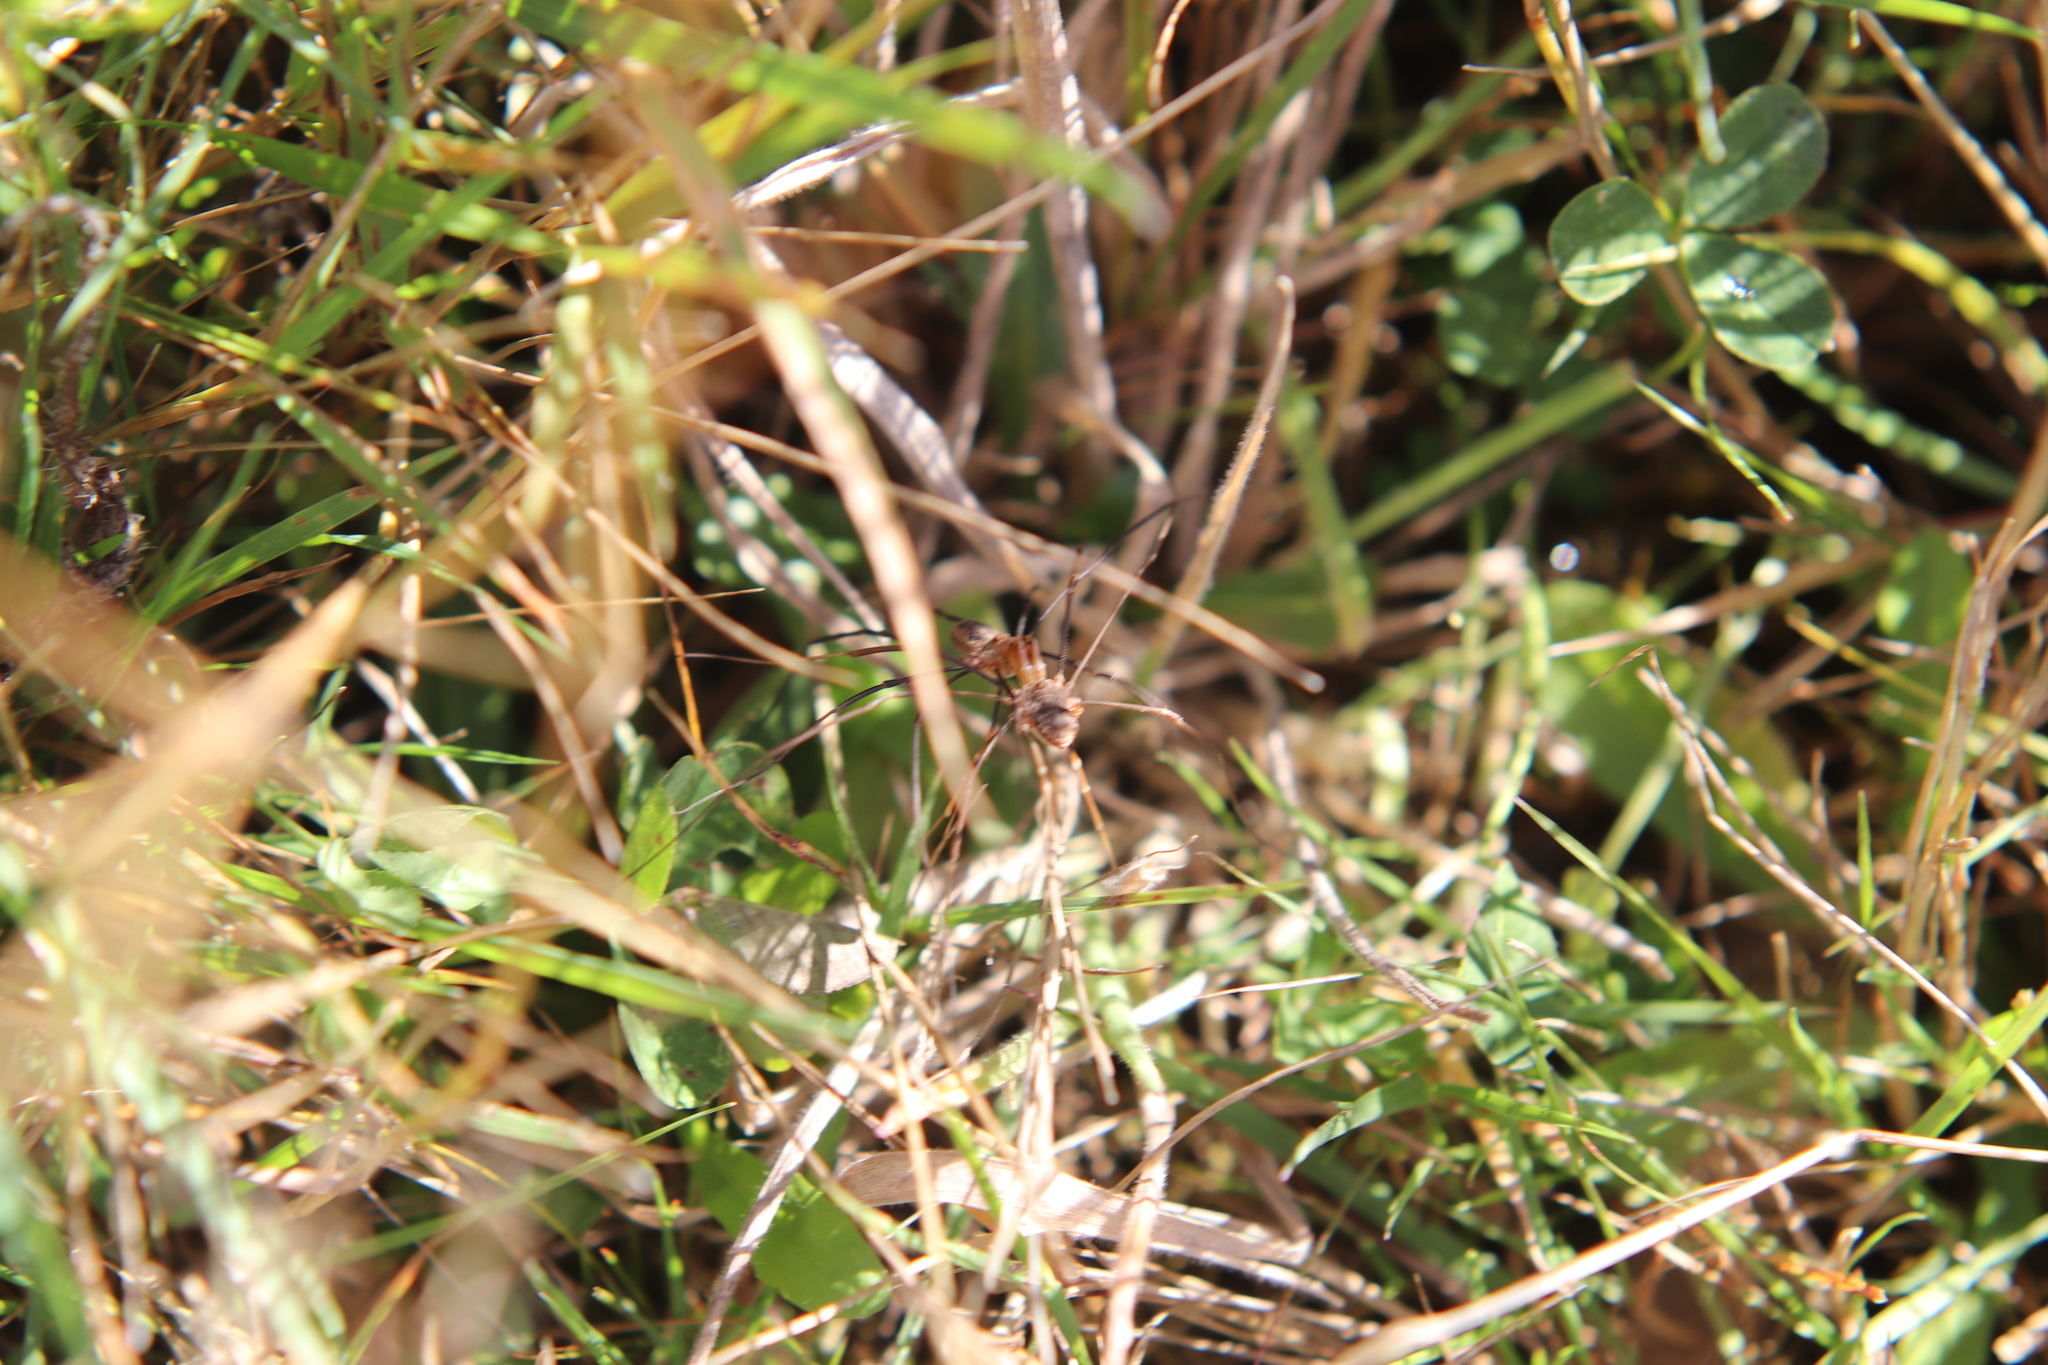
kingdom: Animalia
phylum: Arthropoda
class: Arachnida
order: Opiliones
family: Phalangiidae
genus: Phalangium
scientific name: Phalangium opilio
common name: Daddy longleg
